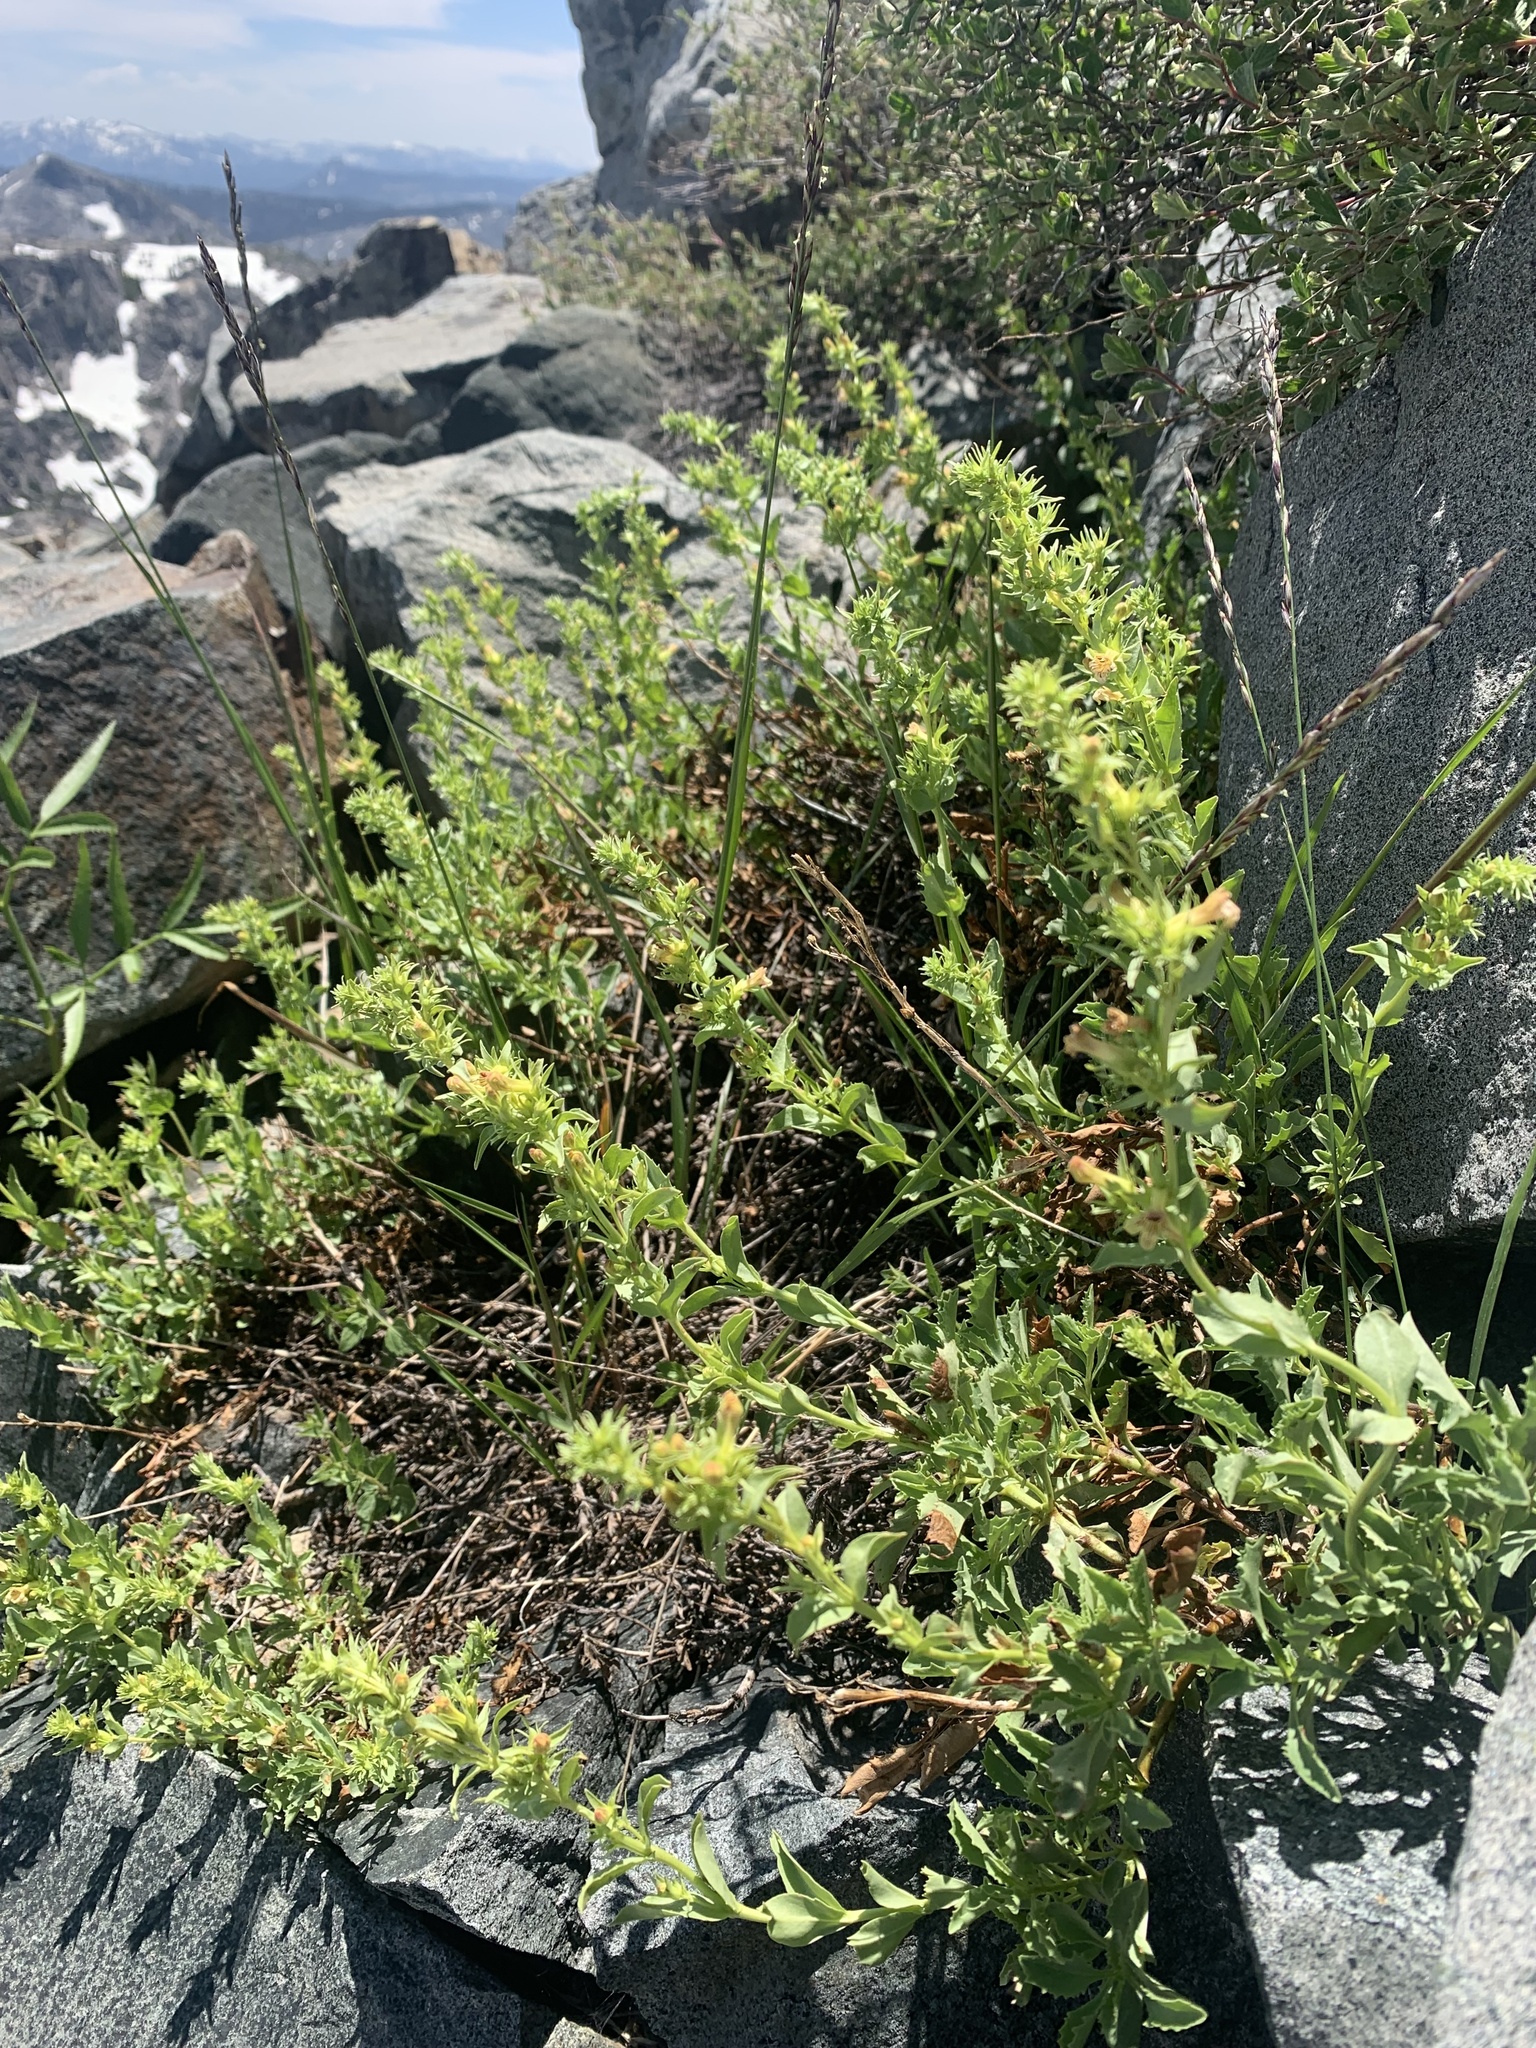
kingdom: Plantae
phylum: Tracheophyta
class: Magnoliopsida
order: Lamiales
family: Plantaginaceae
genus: Penstemon
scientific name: Penstemon deustus
